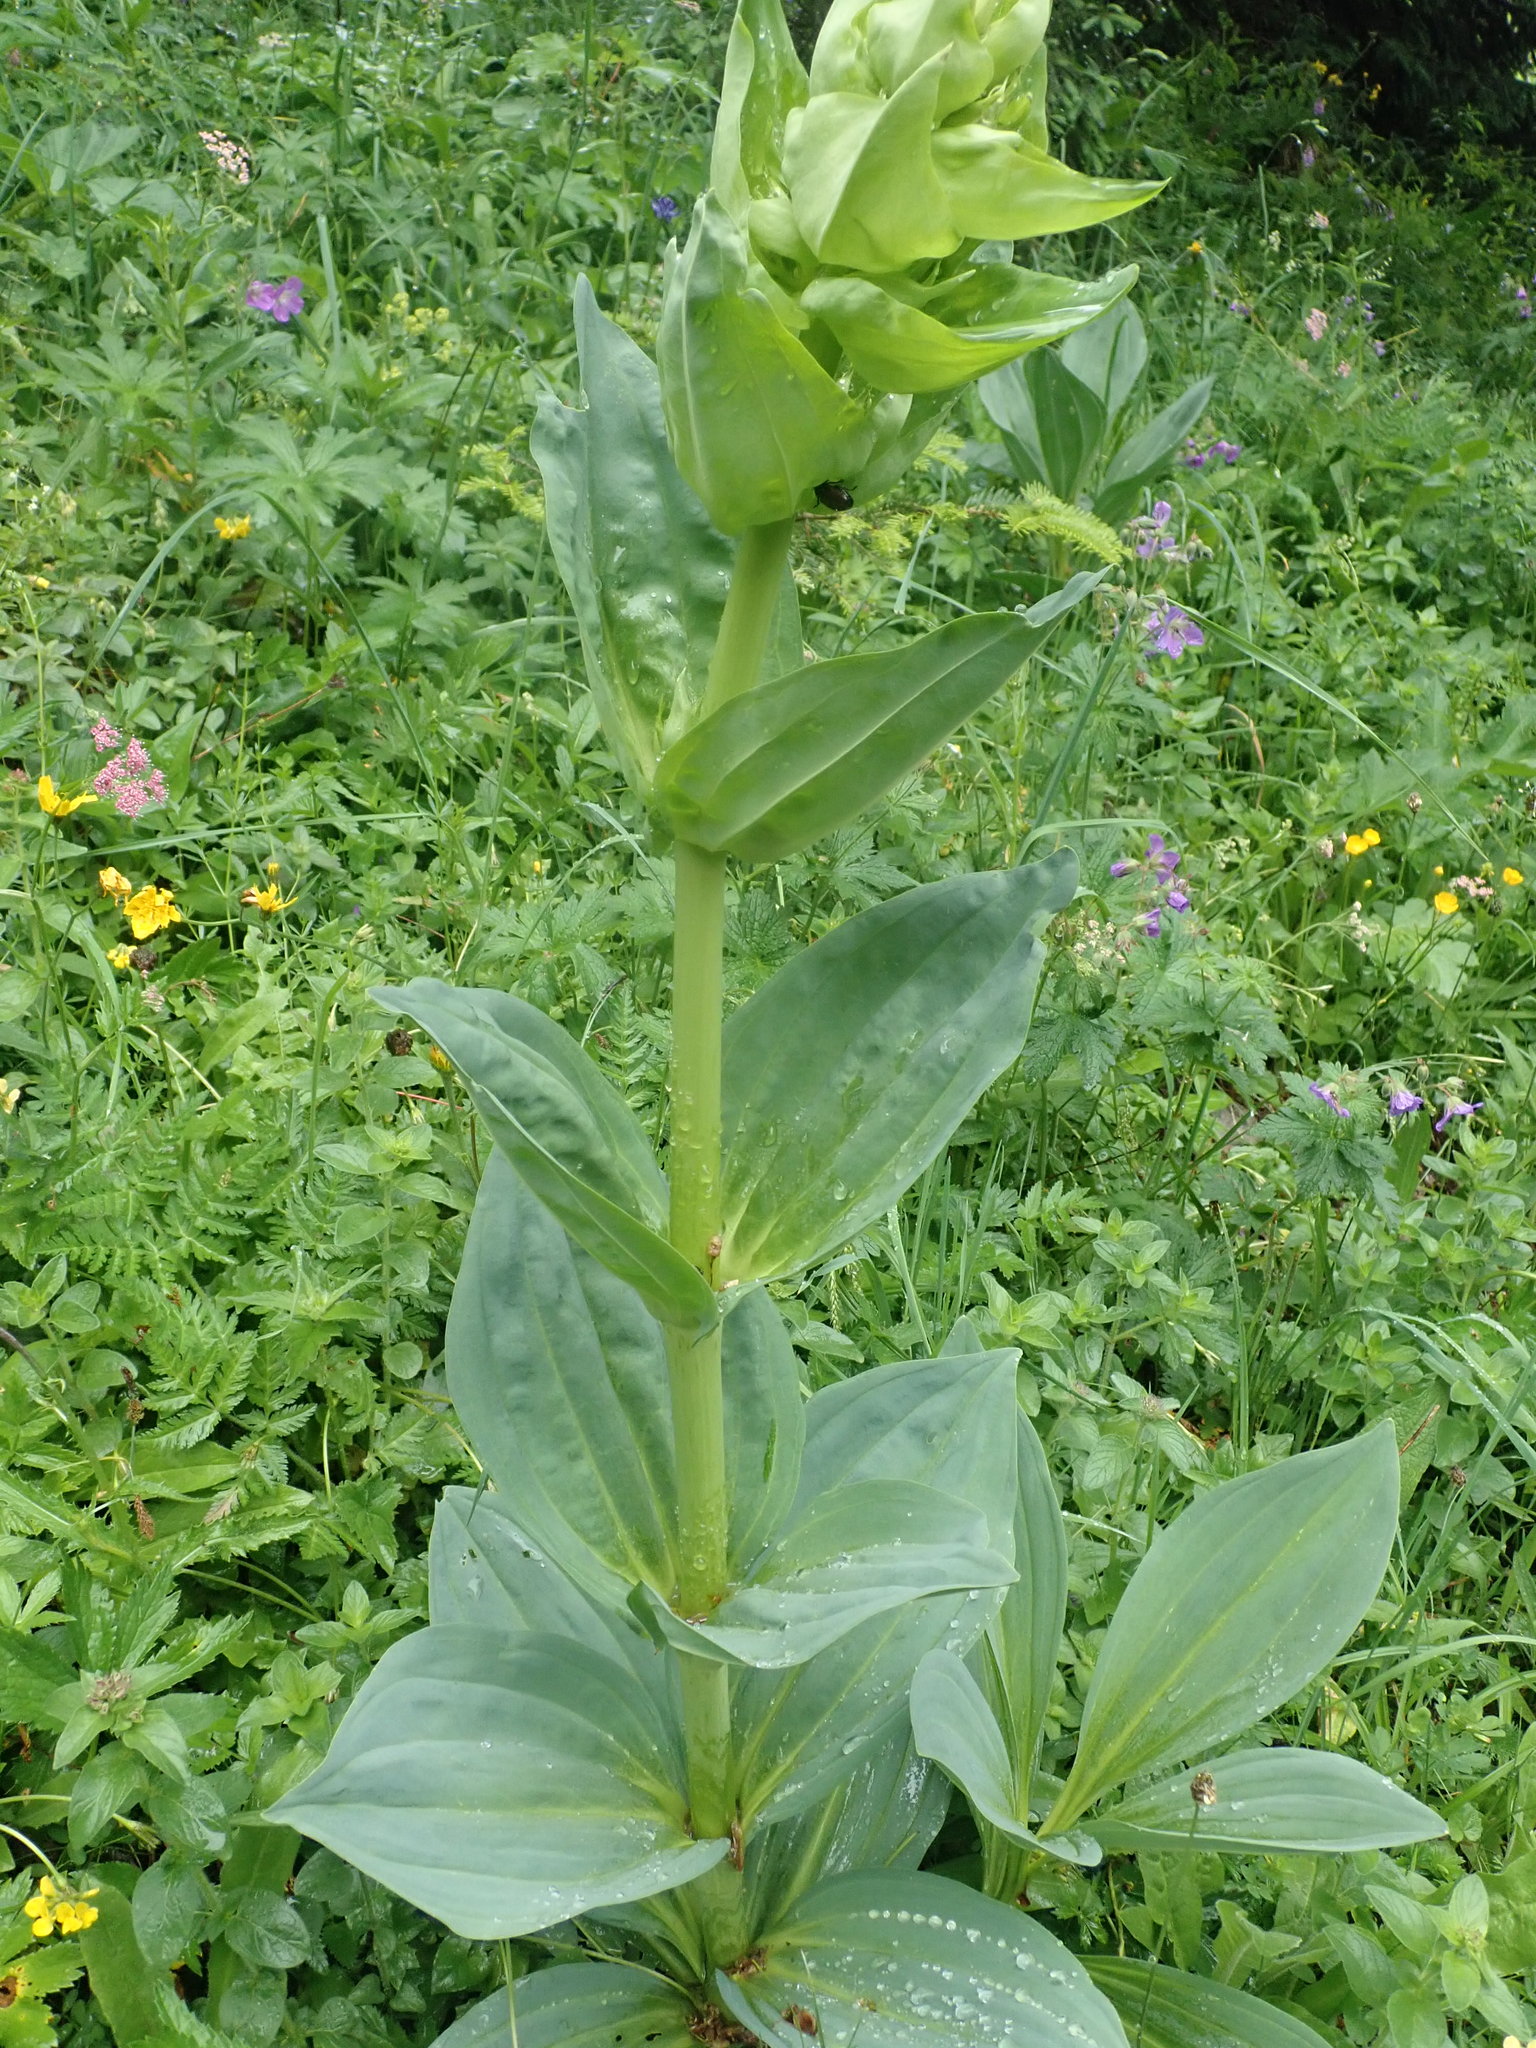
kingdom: Plantae
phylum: Tracheophyta
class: Magnoliopsida
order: Gentianales
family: Gentianaceae
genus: Gentiana
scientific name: Gentiana lutea
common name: Great yellow gentian
